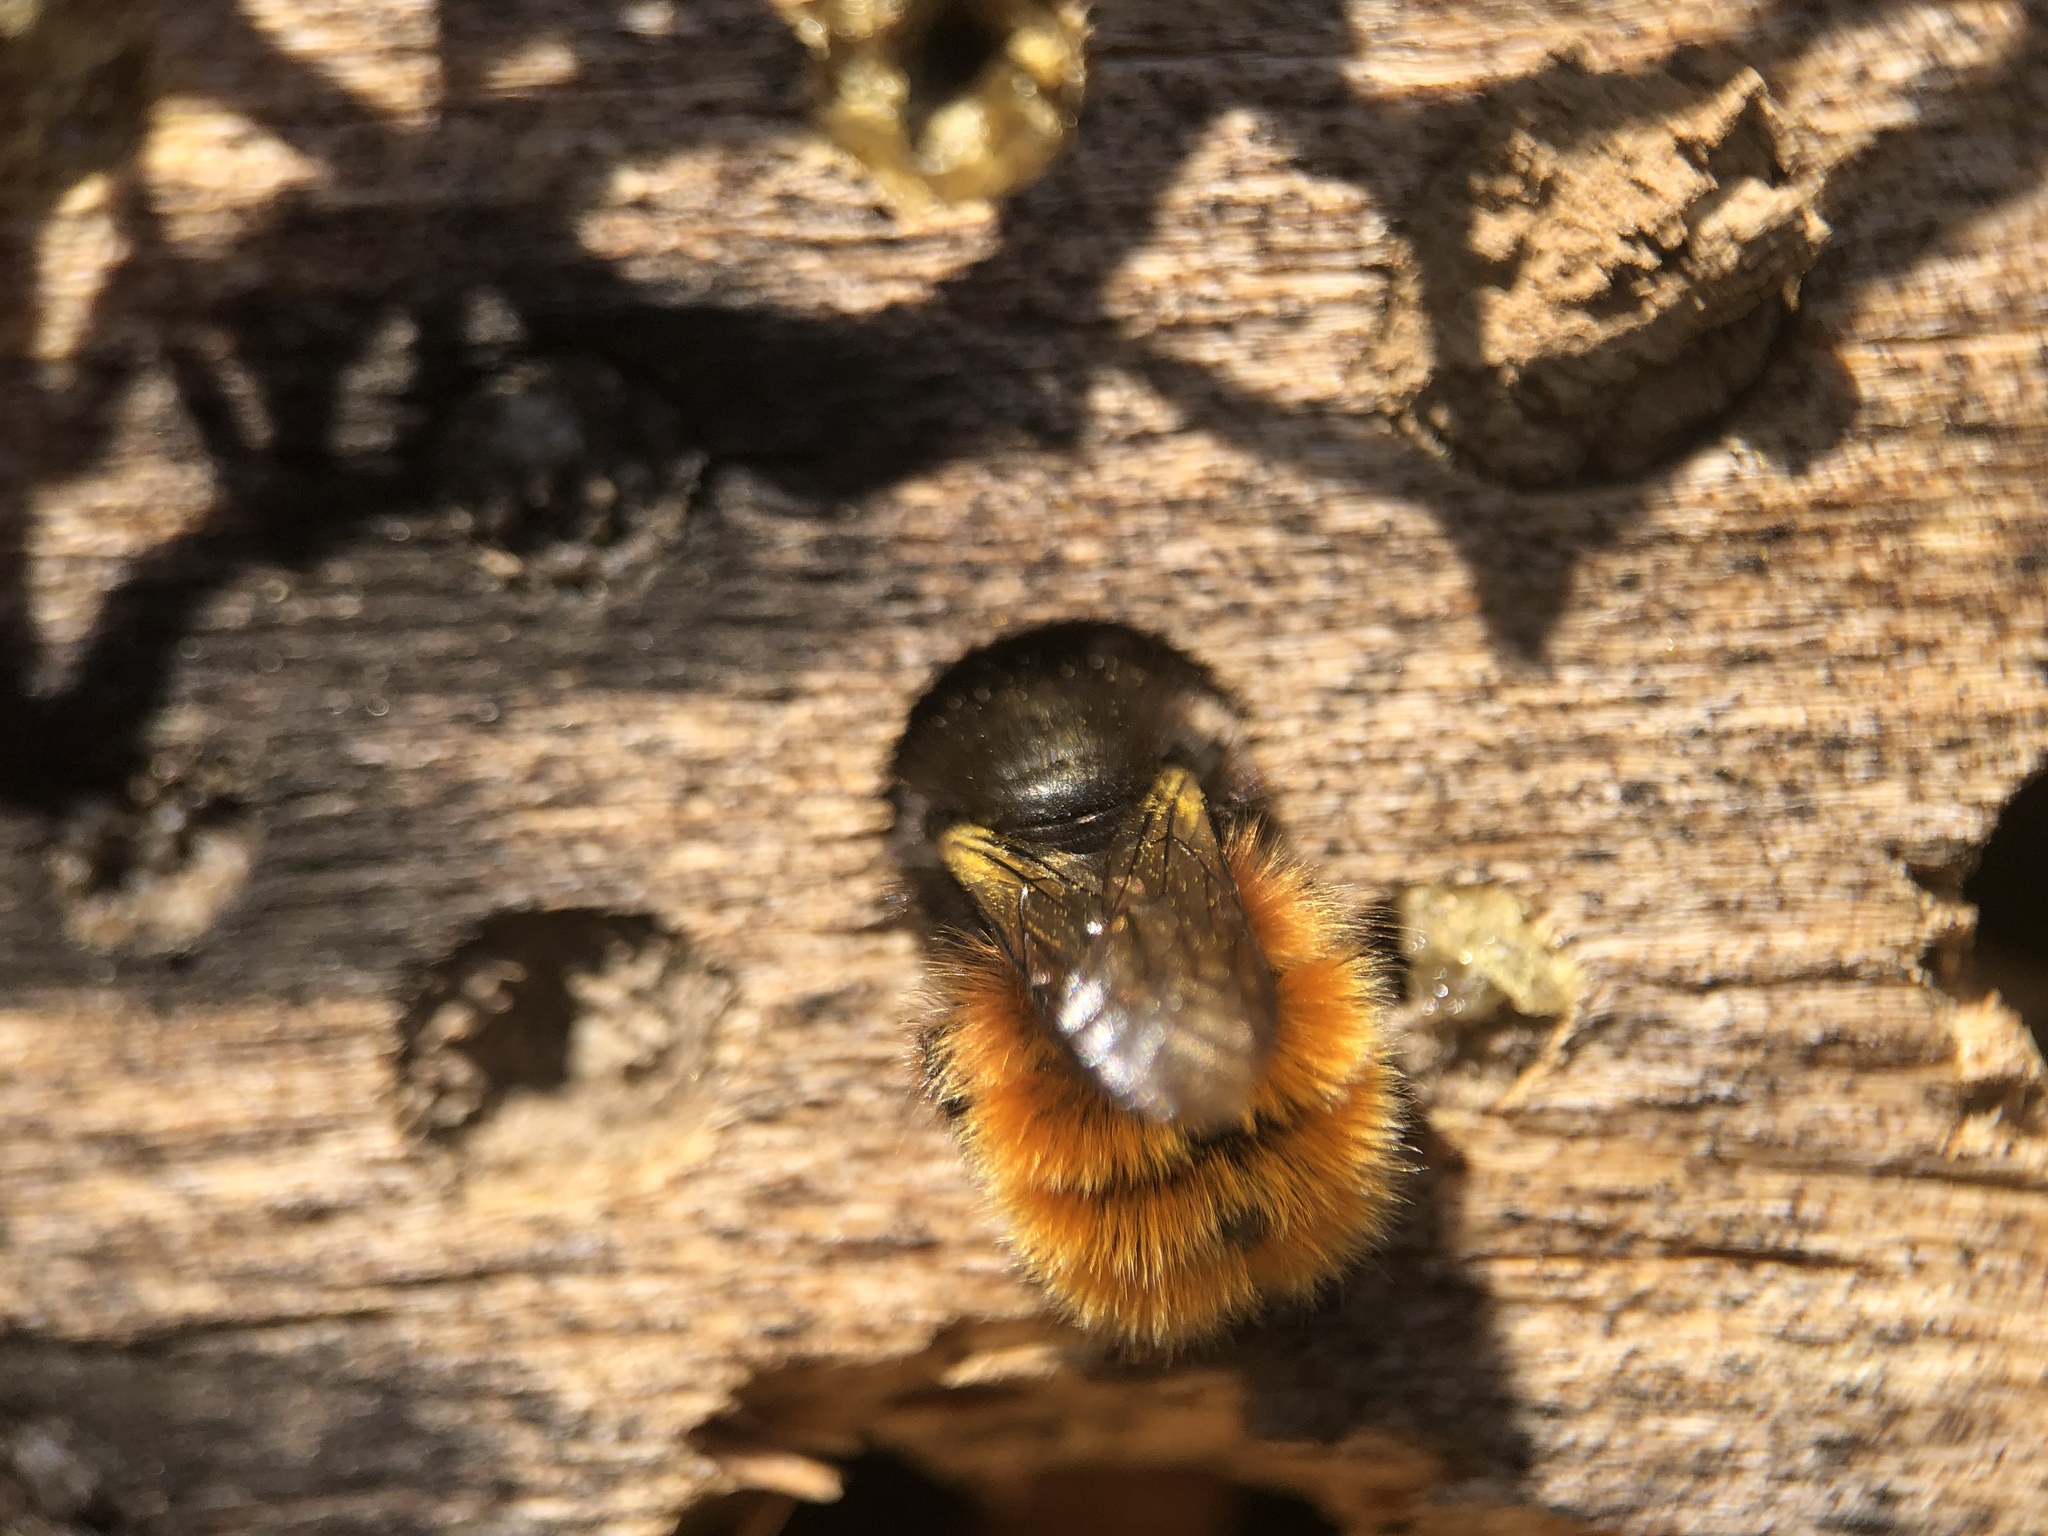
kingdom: Animalia
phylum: Arthropoda
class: Insecta
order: Hymenoptera
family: Megachilidae
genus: Osmia
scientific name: Osmia cornuta
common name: Mason bee
